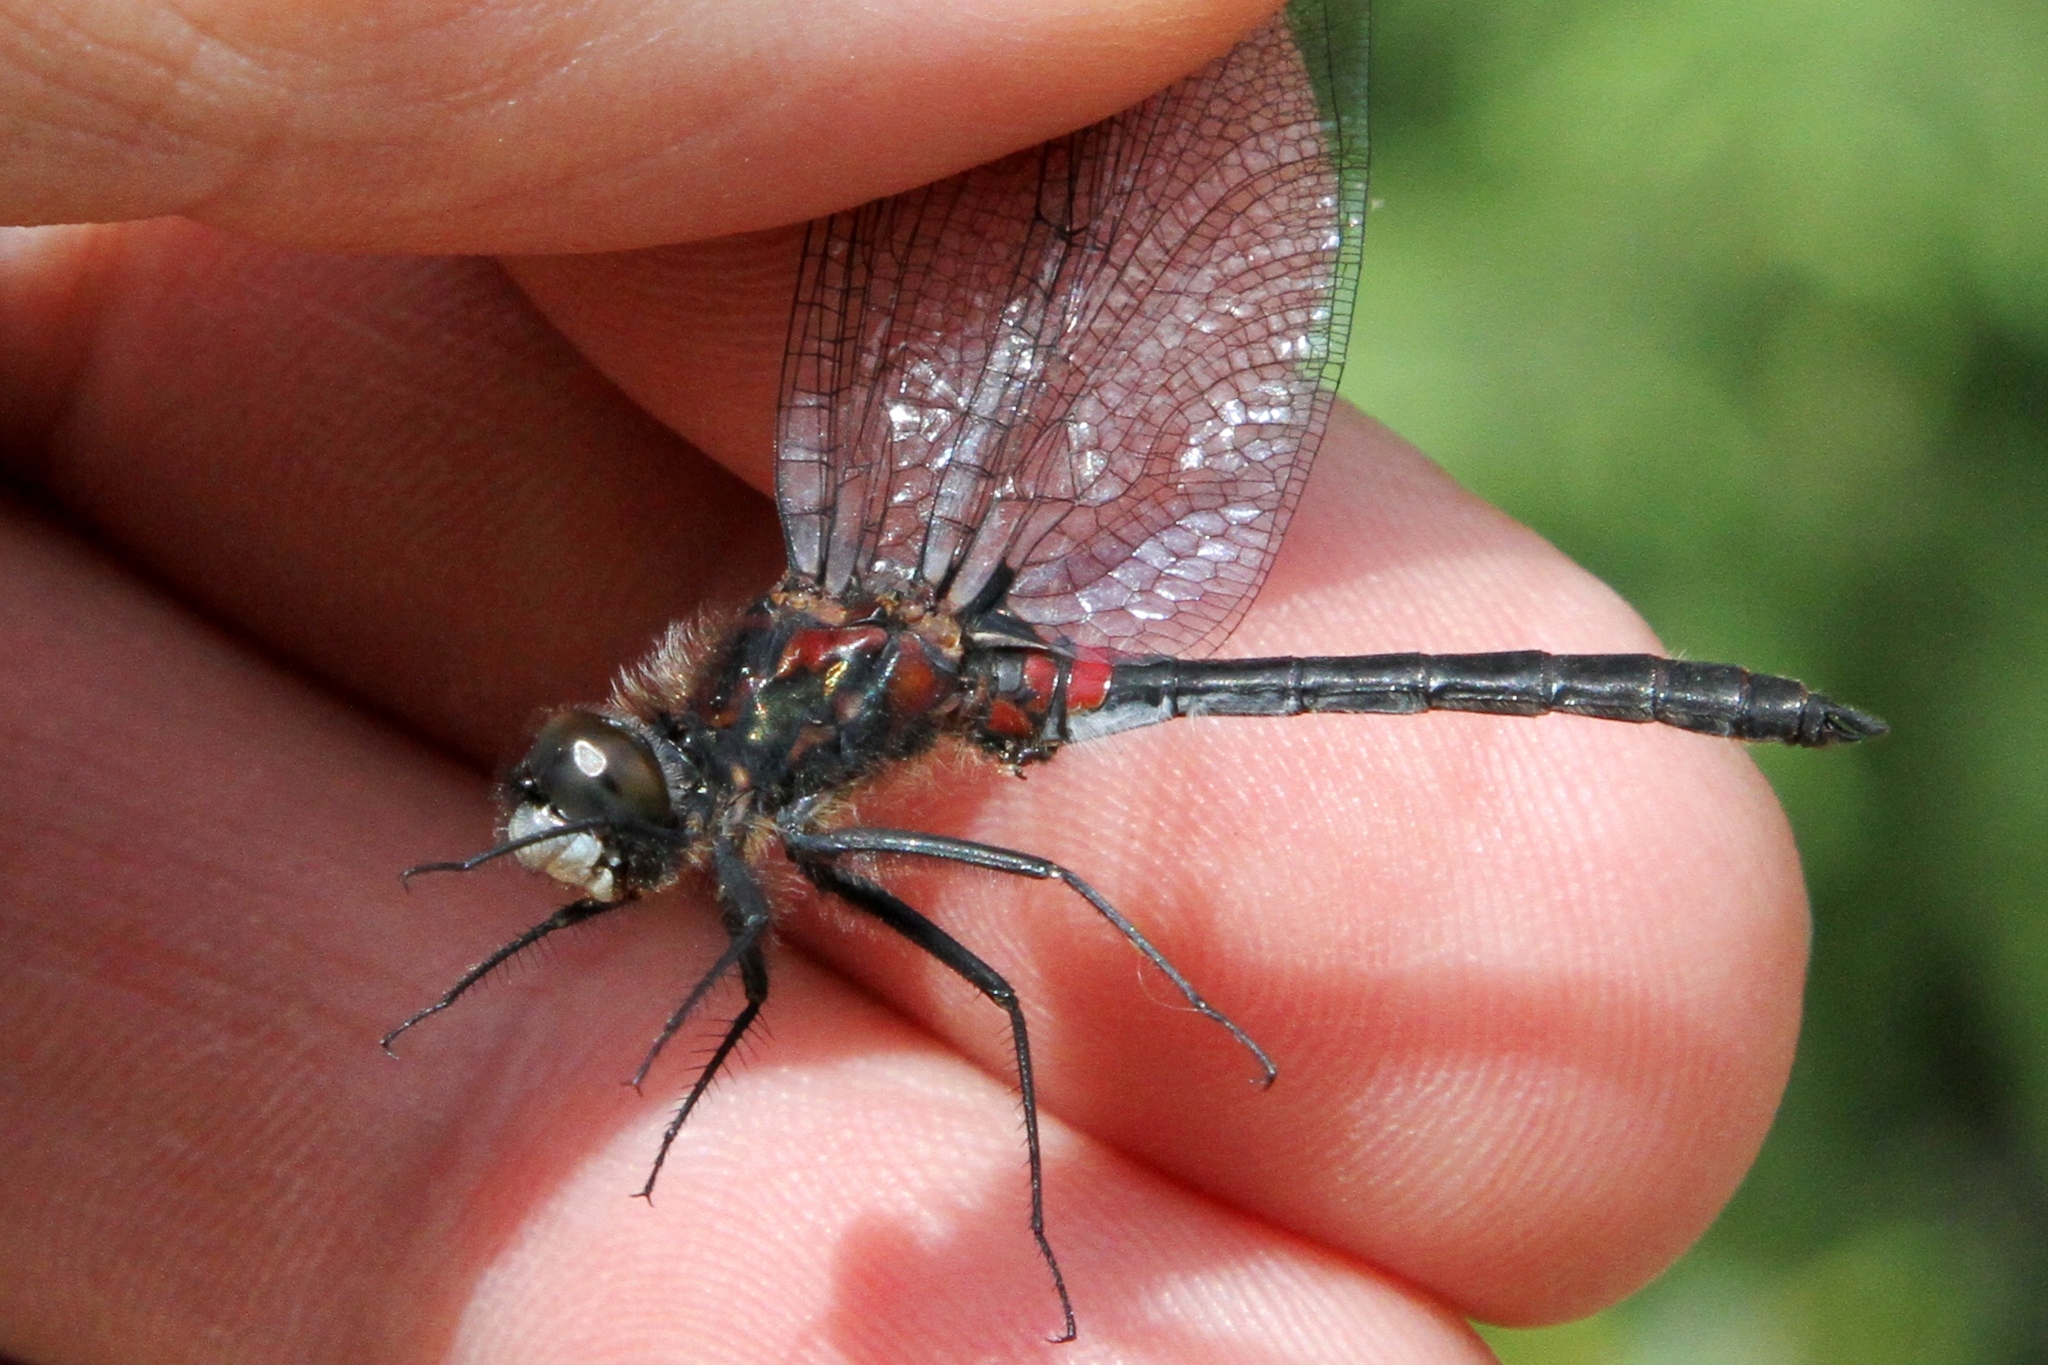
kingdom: Animalia
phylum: Arthropoda
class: Insecta
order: Odonata
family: Libellulidae
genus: Leucorrhinia
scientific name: Leucorrhinia proxima
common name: Belted whiteface
